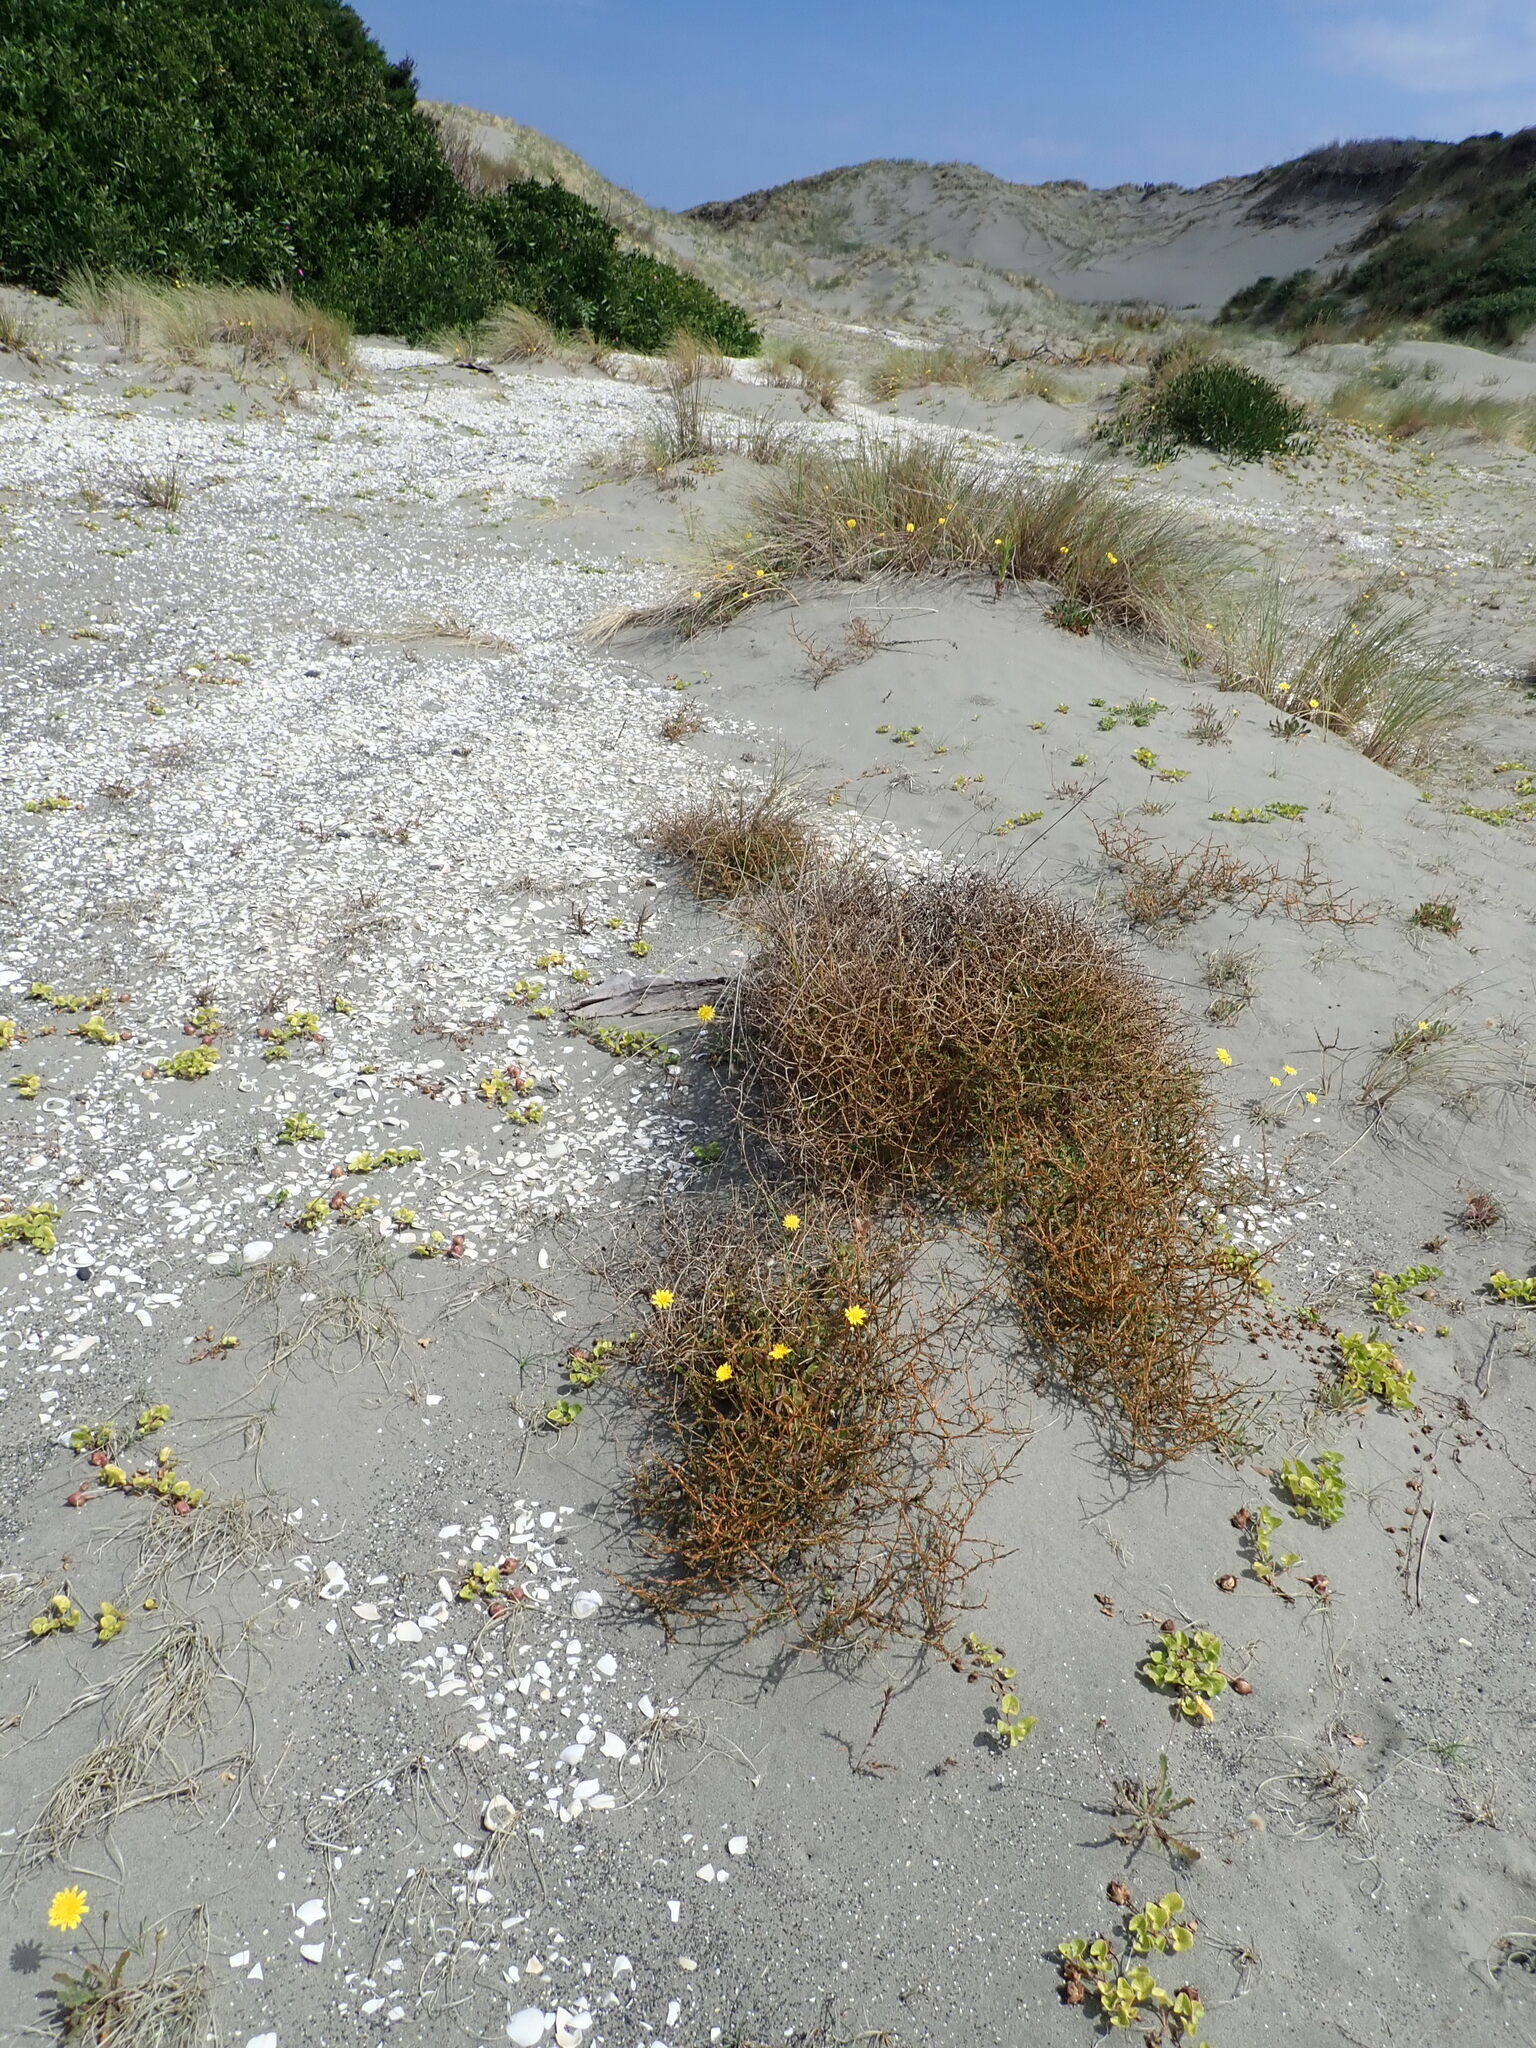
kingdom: Plantae
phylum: Tracheophyta
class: Magnoliopsida
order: Gentianales
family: Rubiaceae
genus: Coprosma
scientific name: Coprosma acerosa
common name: Sand coprosma
